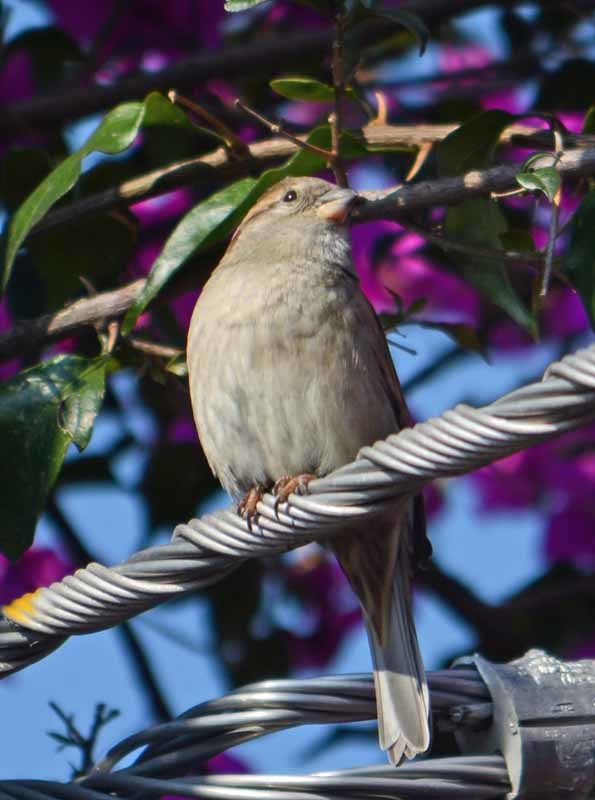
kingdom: Animalia
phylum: Chordata
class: Aves
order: Passeriformes
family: Passeridae
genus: Passer
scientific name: Passer domesticus
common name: House sparrow
